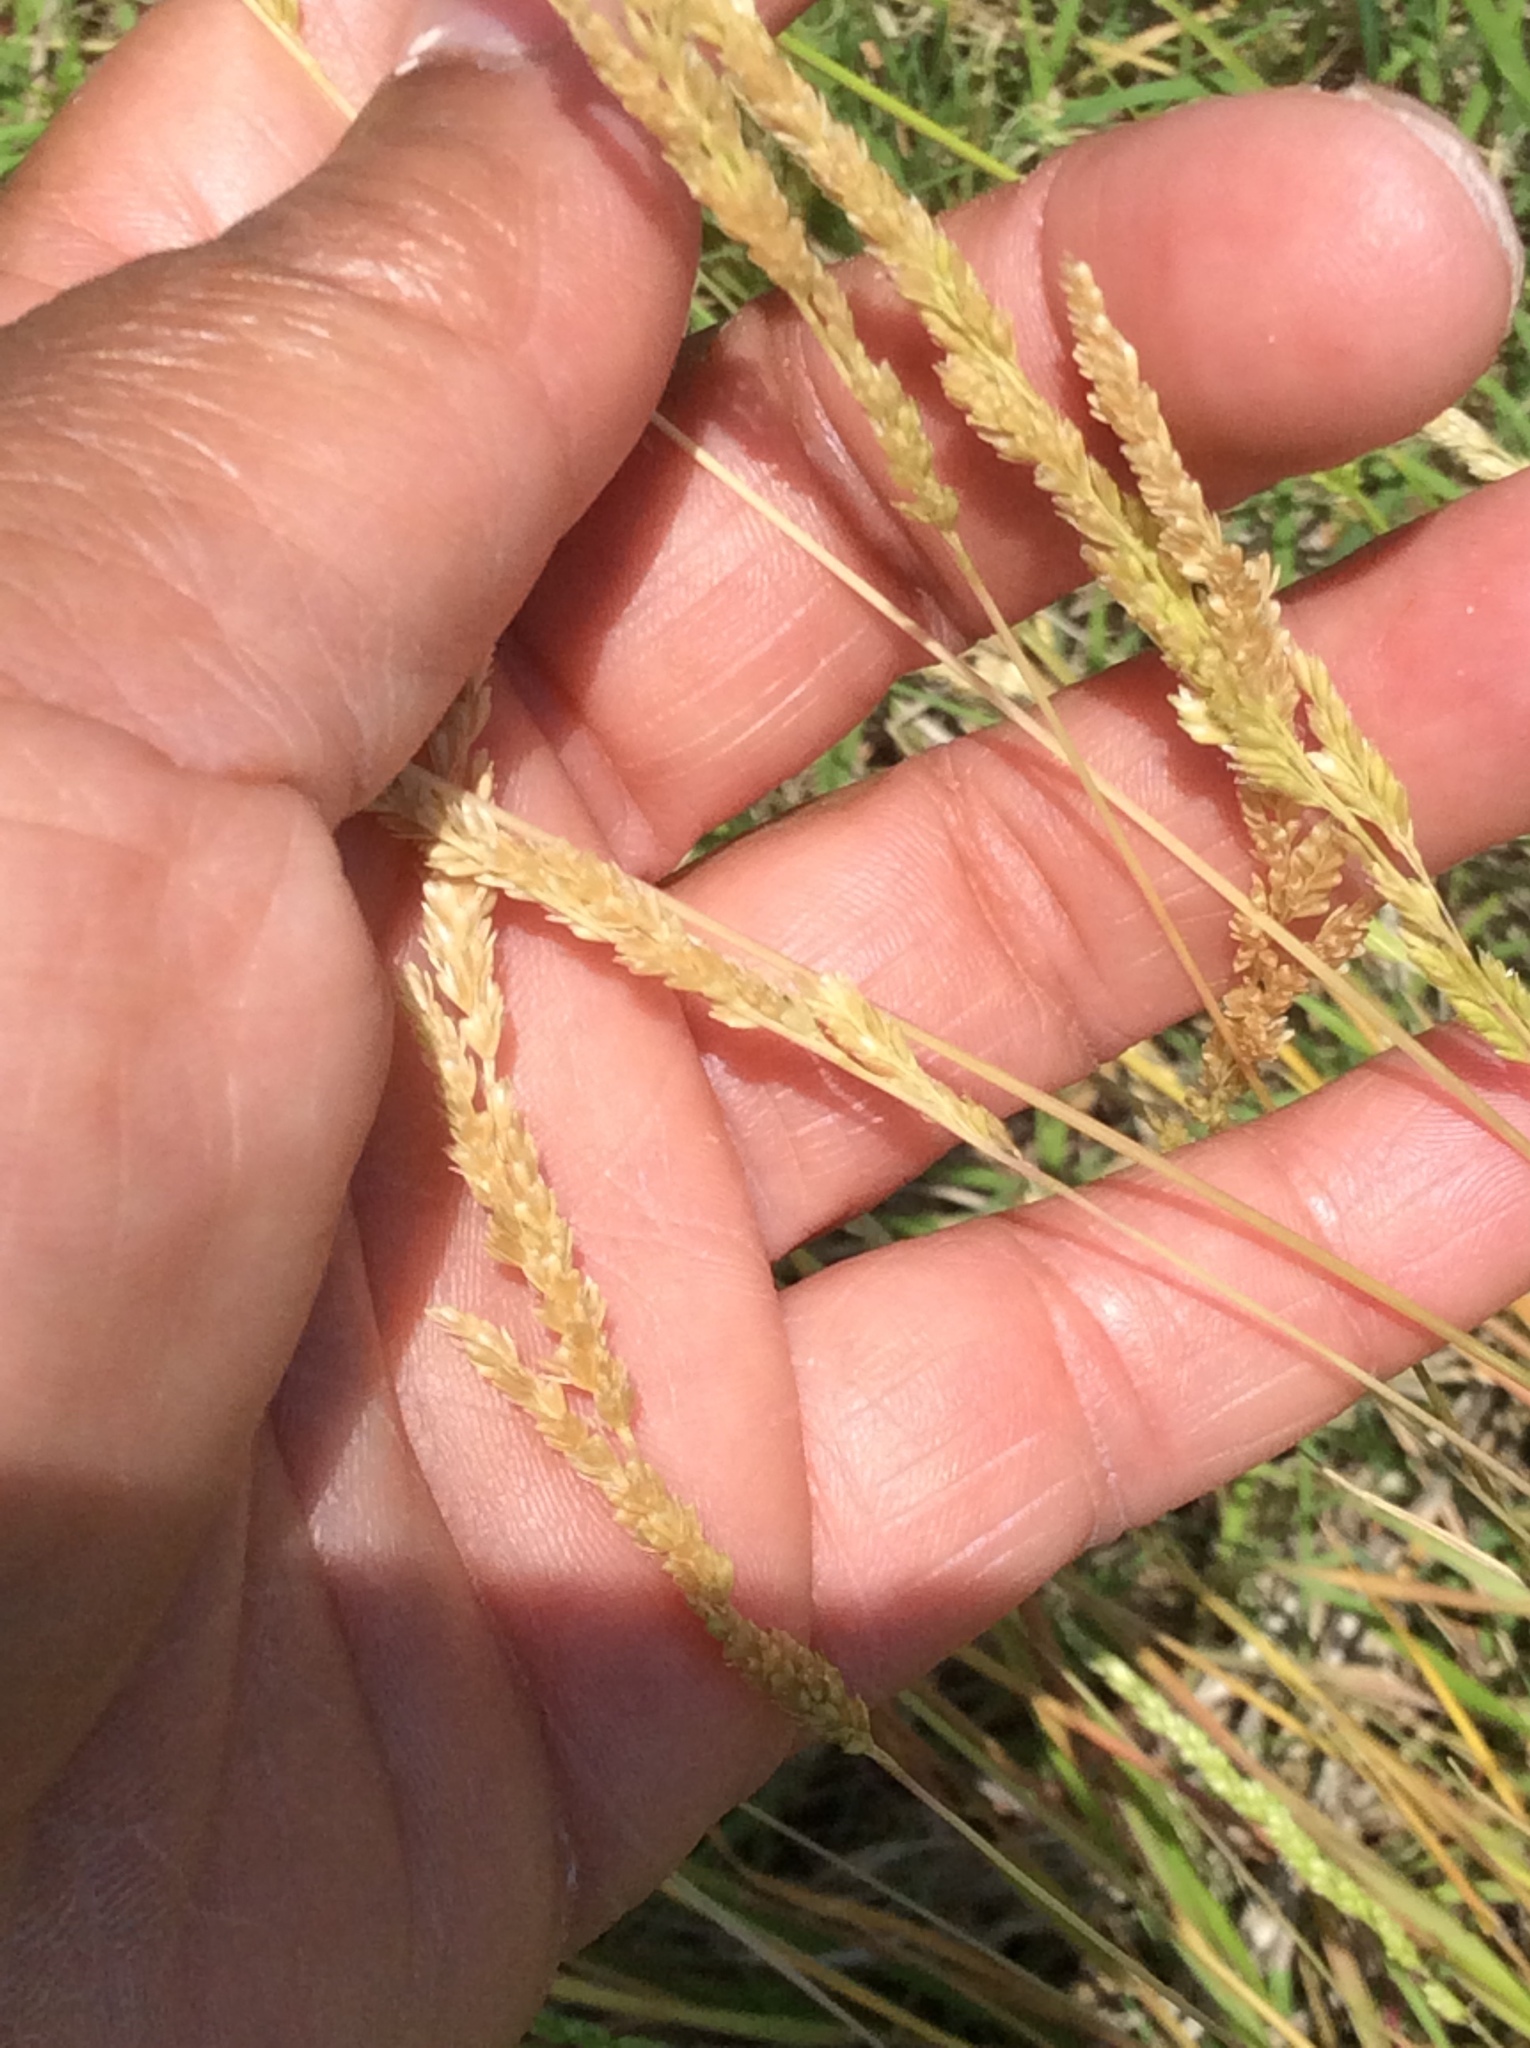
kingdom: Plantae
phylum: Tracheophyta
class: Liliopsida
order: Poales
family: Poaceae
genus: Sphenopholis
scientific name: Sphenopholis obtusata
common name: Prairie grass
